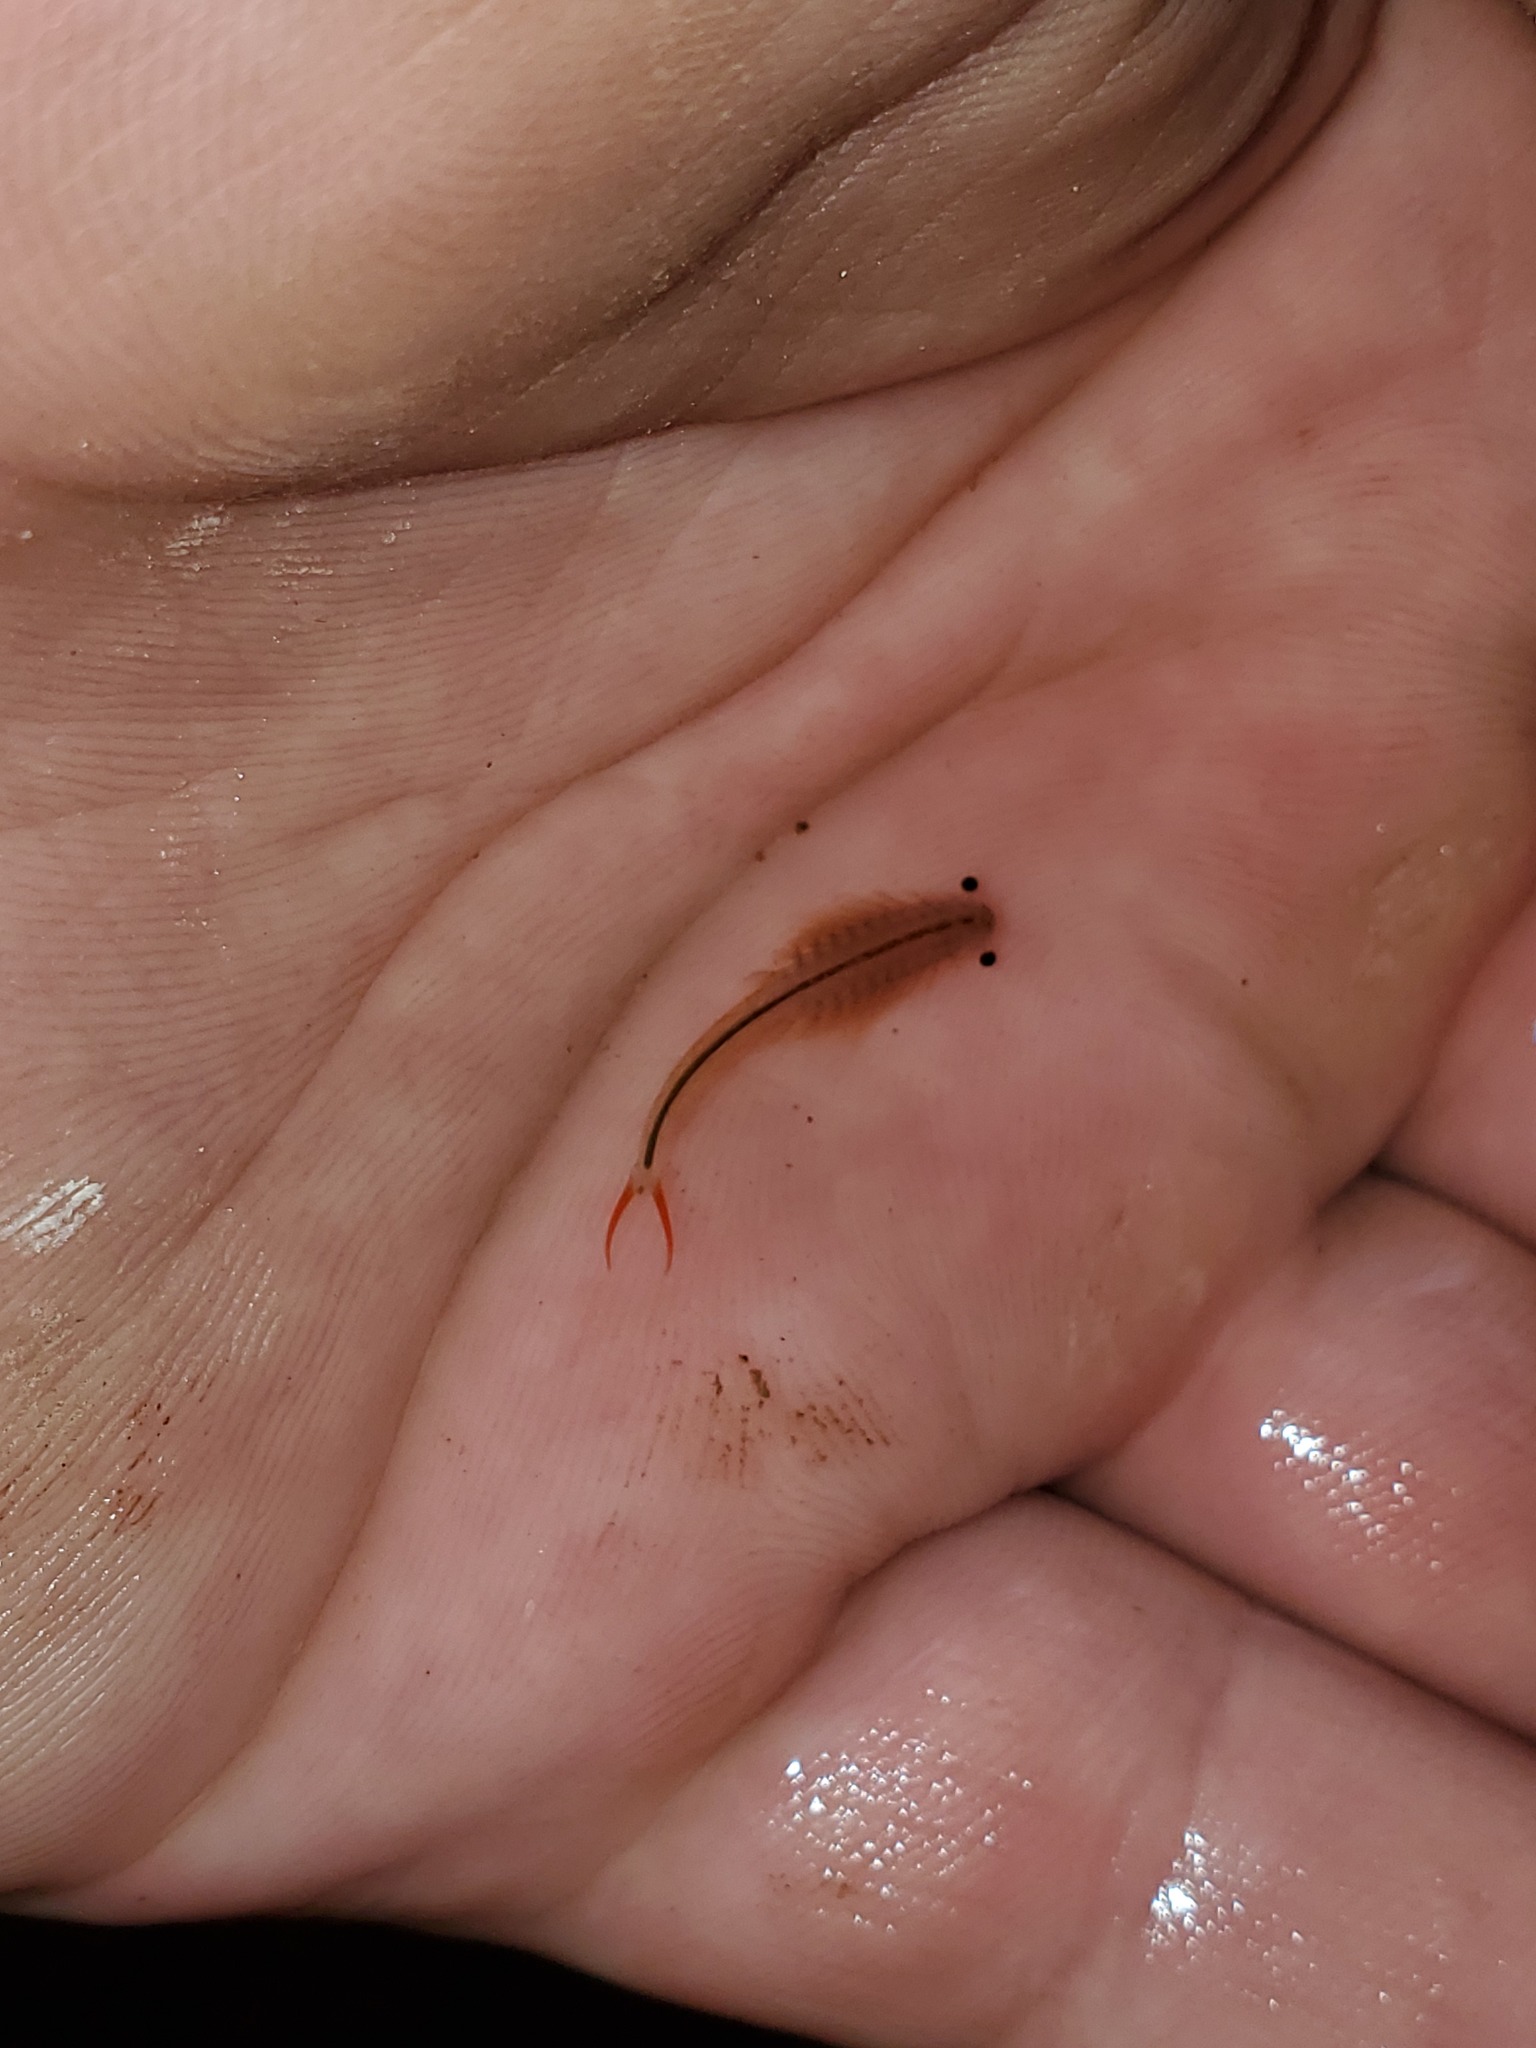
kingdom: Animalia
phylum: Arthropoda
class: Branchiopoda
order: Anostraca
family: Streptocephalidae
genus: Streptocephalus
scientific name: Streptocephalus sealii
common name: Spiny-tail fairy shrimp
